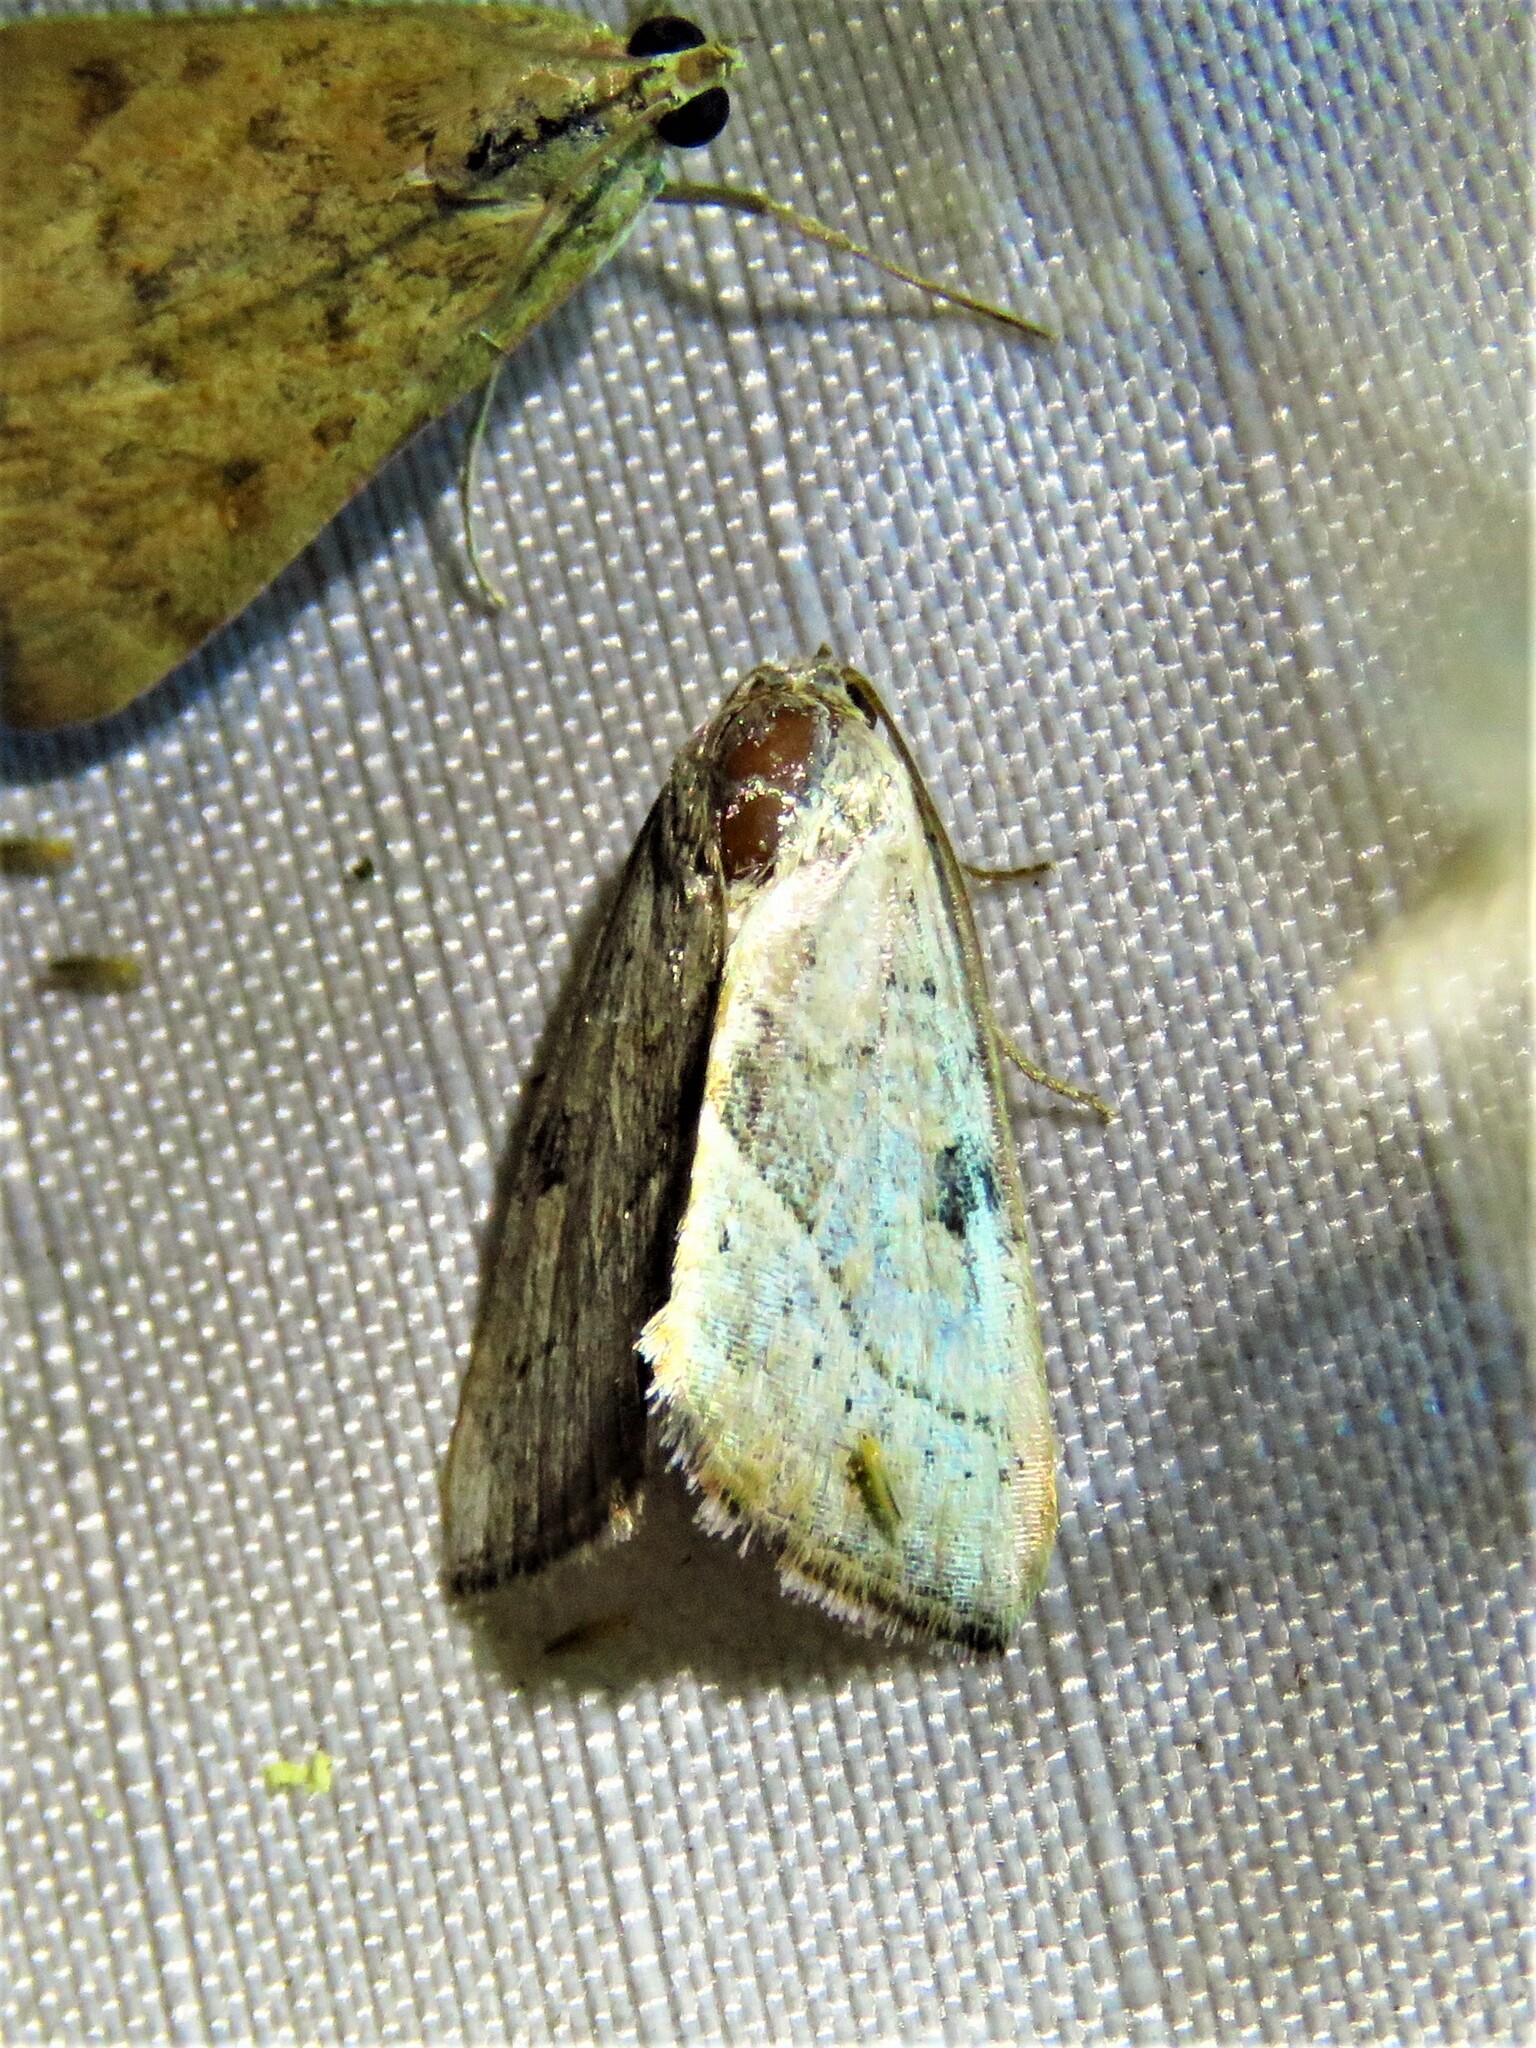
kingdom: Animalia
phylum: Arthropoda
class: Insecta
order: Lepidoptera
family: Noctuidae
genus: Galgula
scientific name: Galgula partita
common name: Wedgeling
